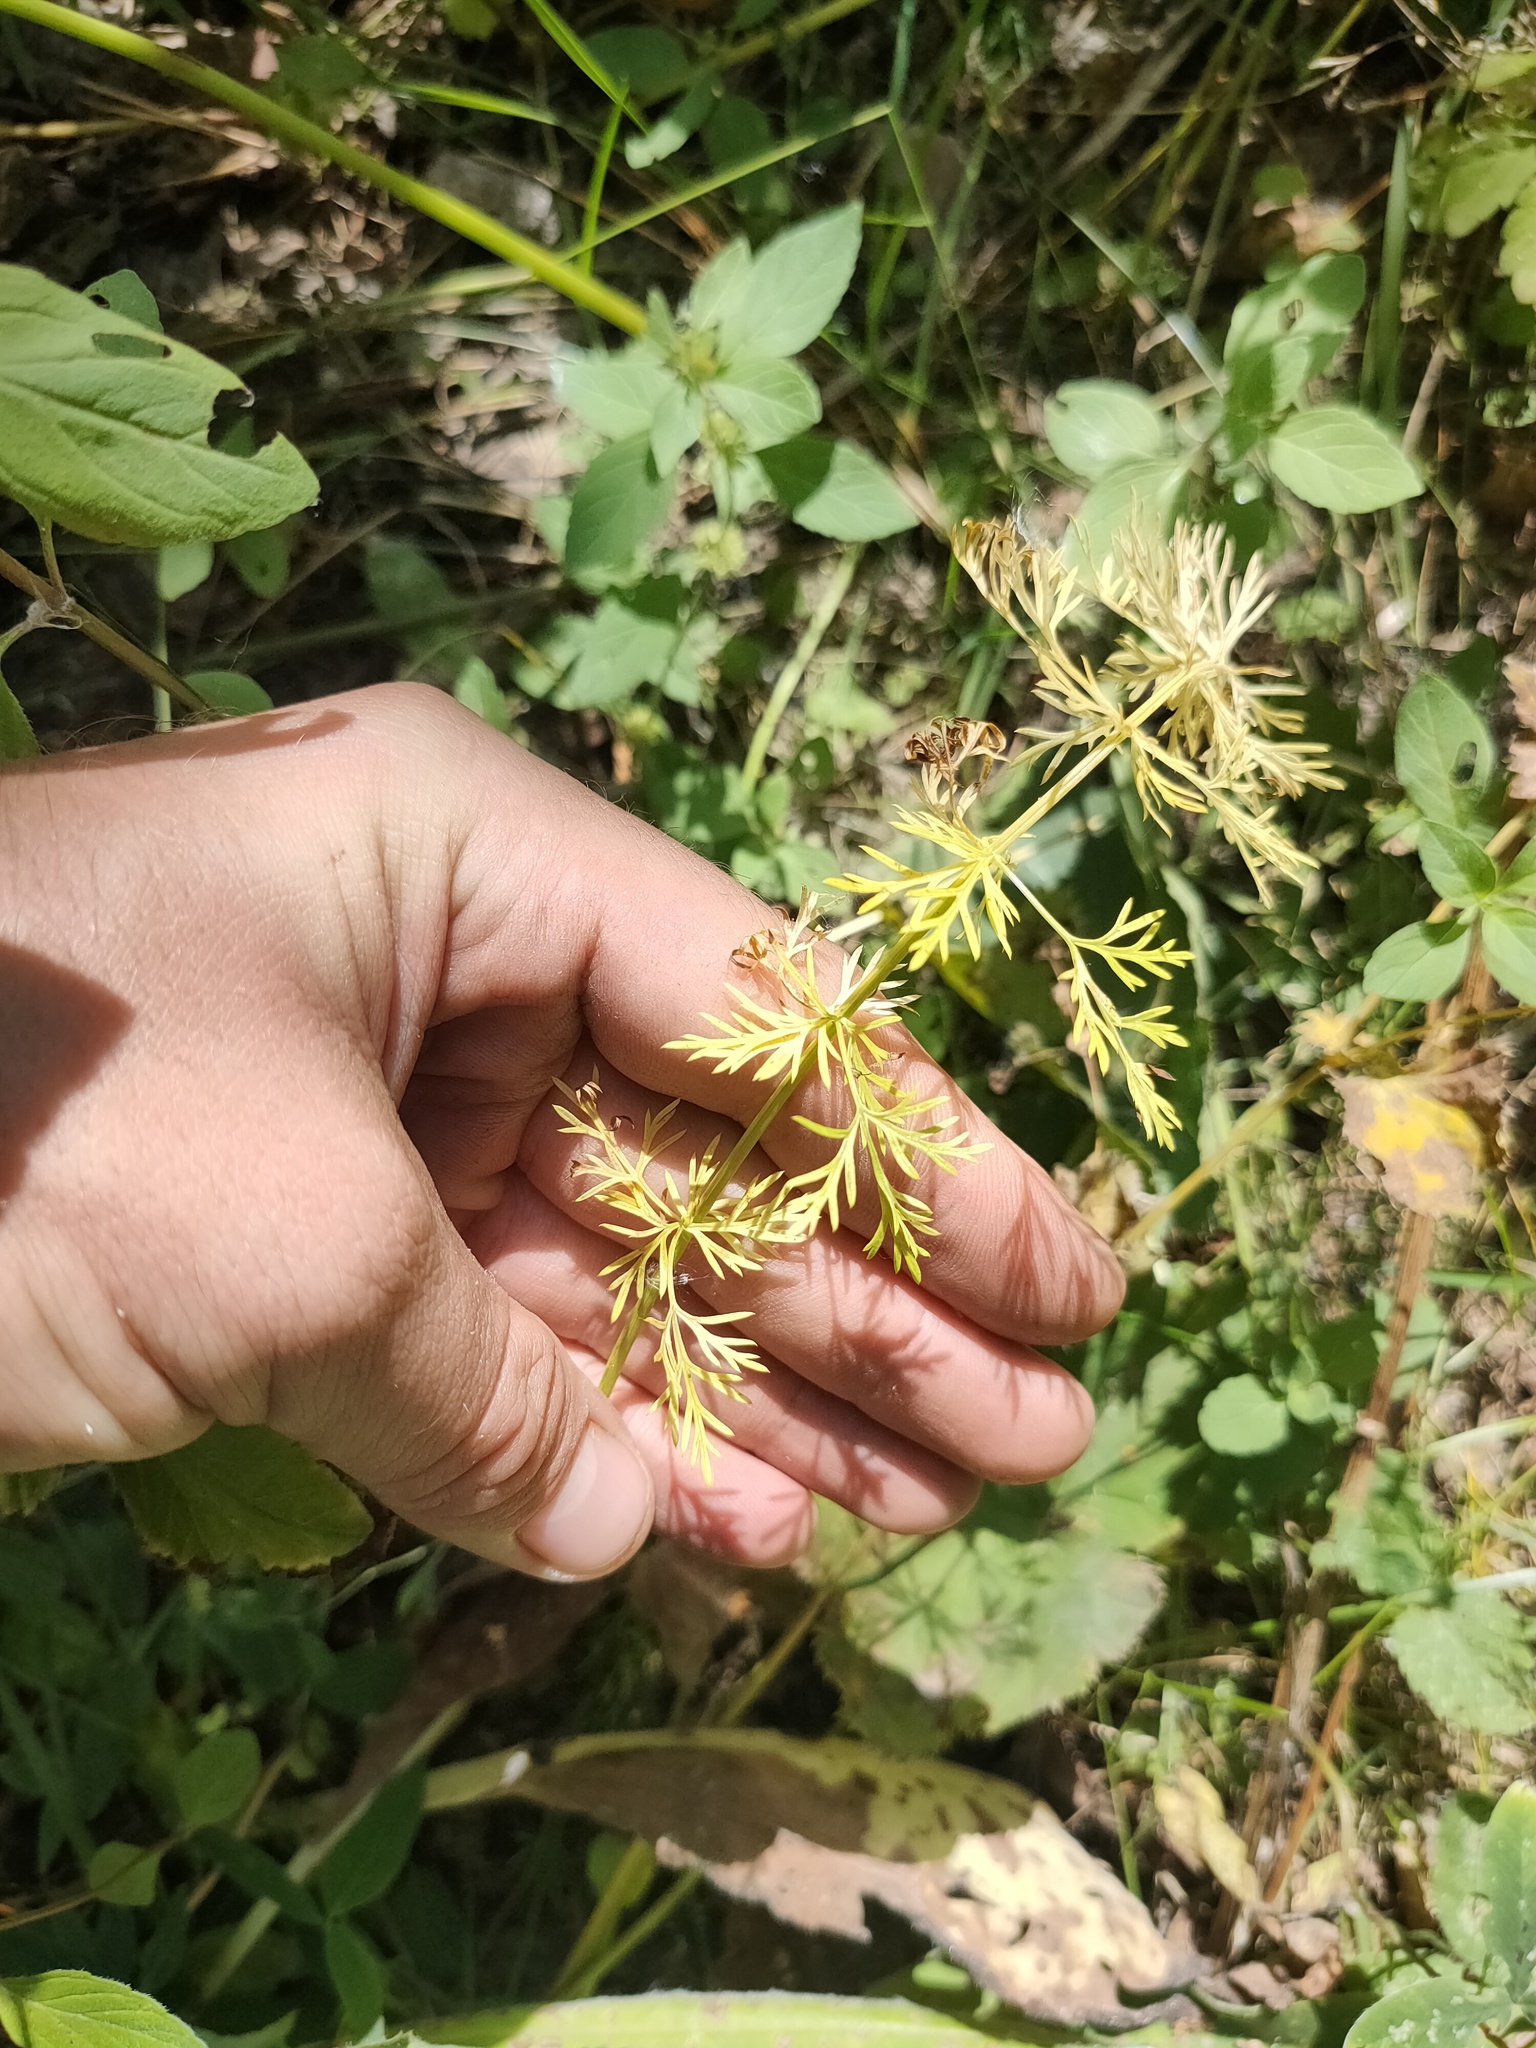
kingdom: Plantae
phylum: Tracheophyta
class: Magnoliopsida
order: Apiales
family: Apiaceae
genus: Carum
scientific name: Carum carvi
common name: Caraway
